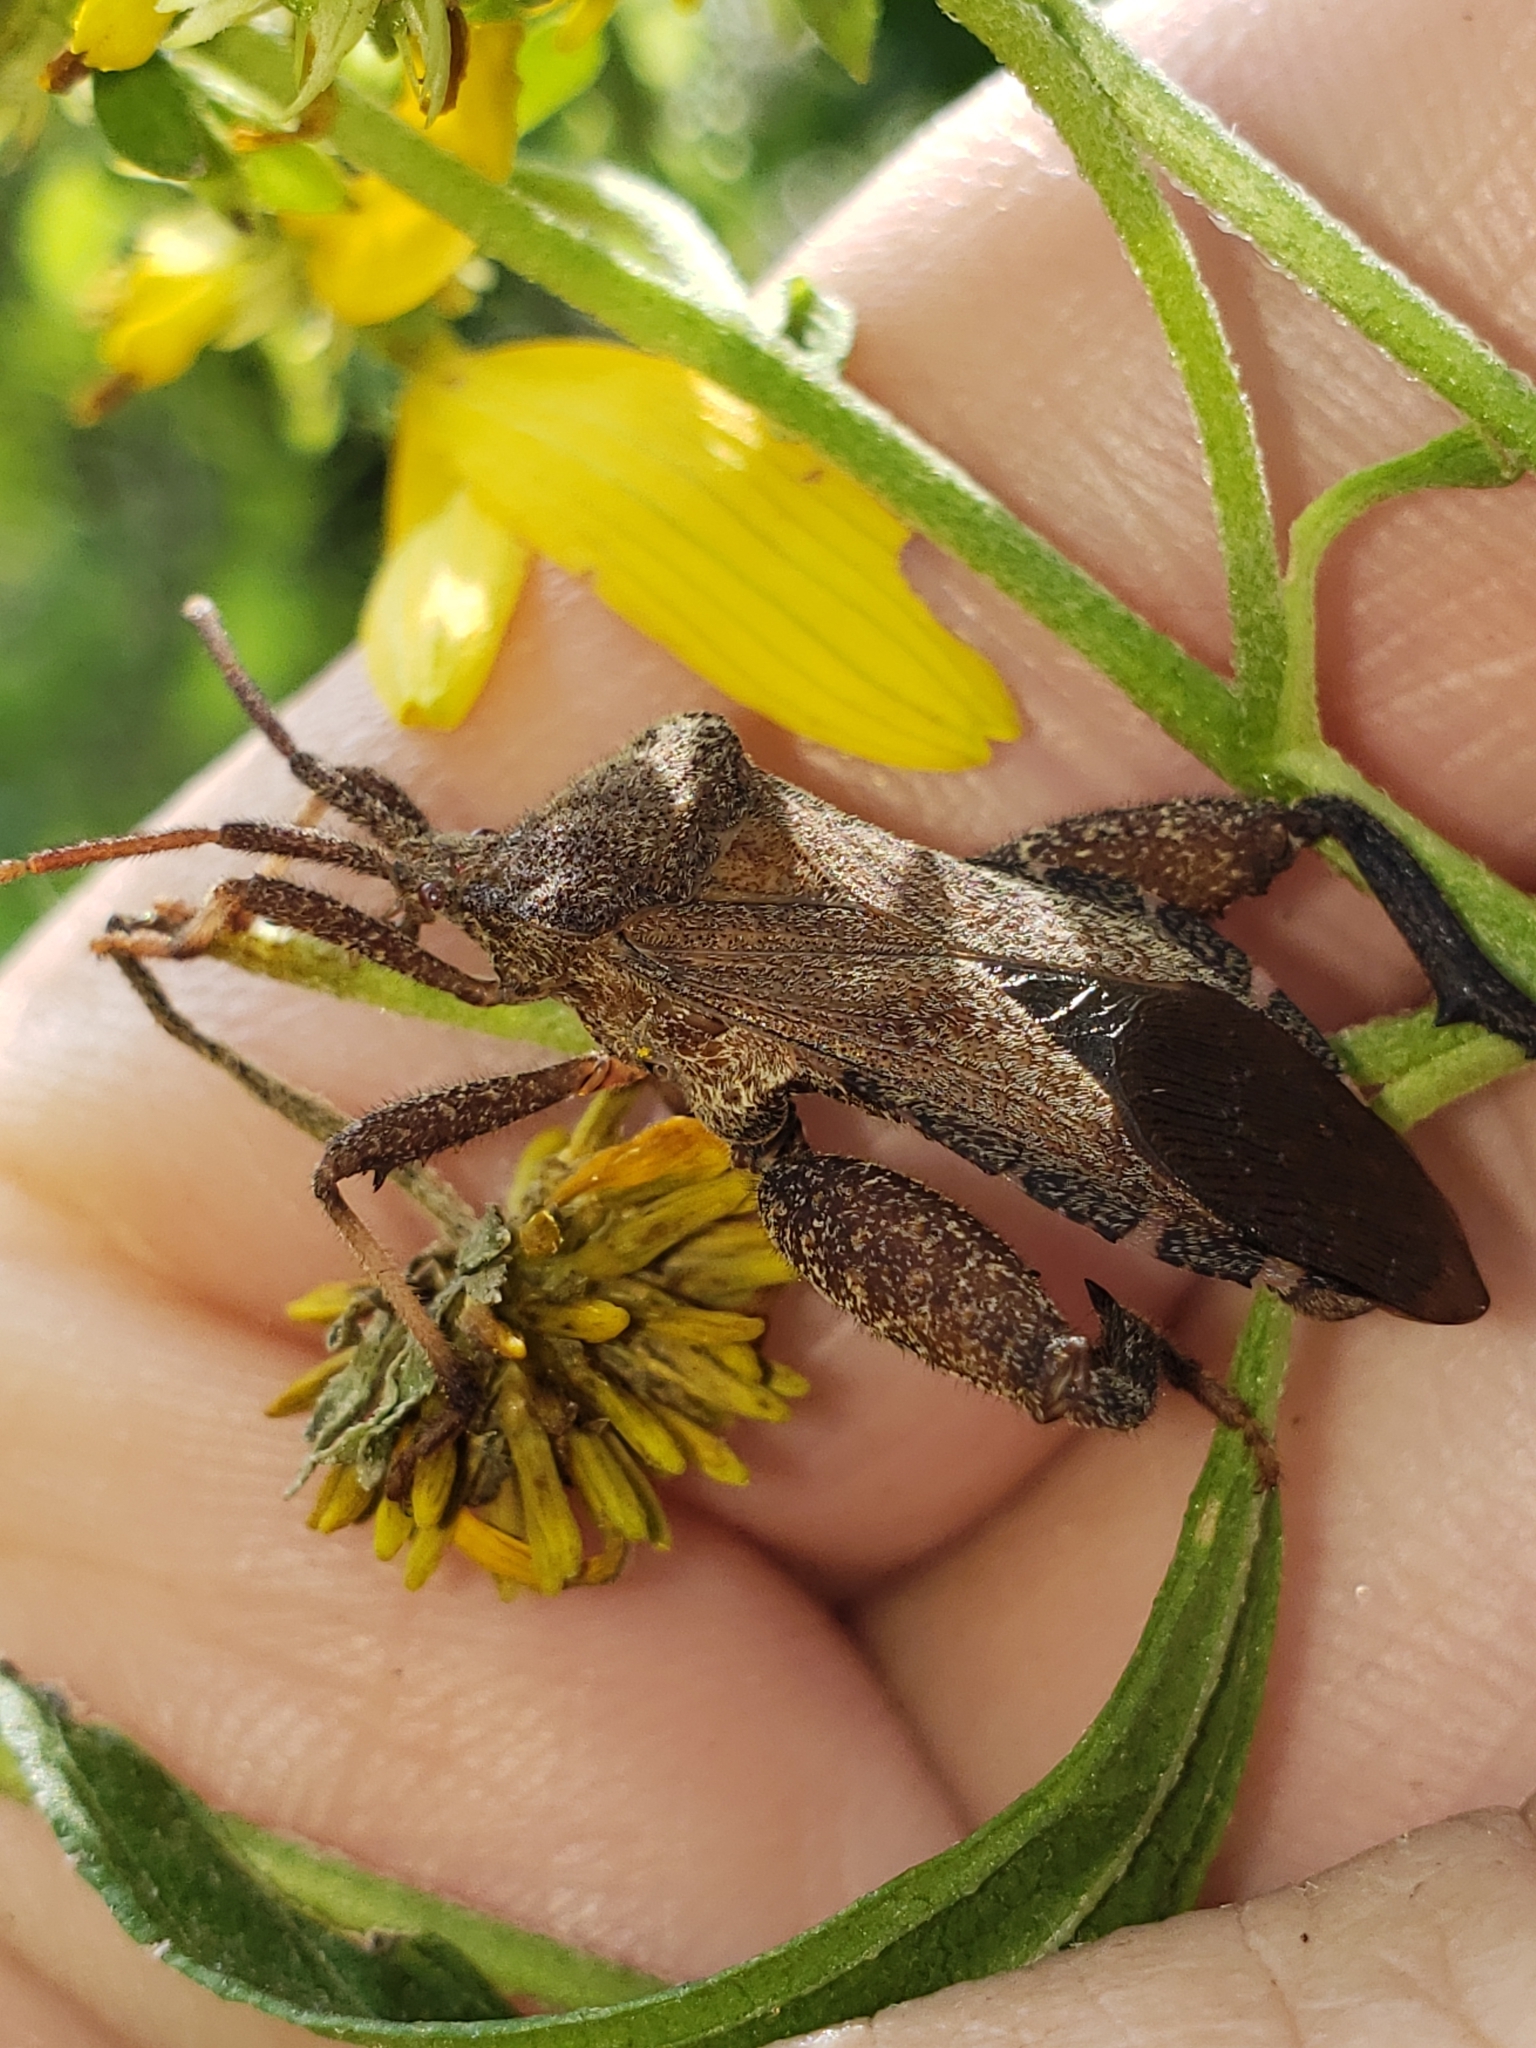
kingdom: Animalia
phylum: Arthropoda
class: Insecta
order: Hemiptera
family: Coreidae
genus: Piezogaster
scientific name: Piezogaster calcarator
